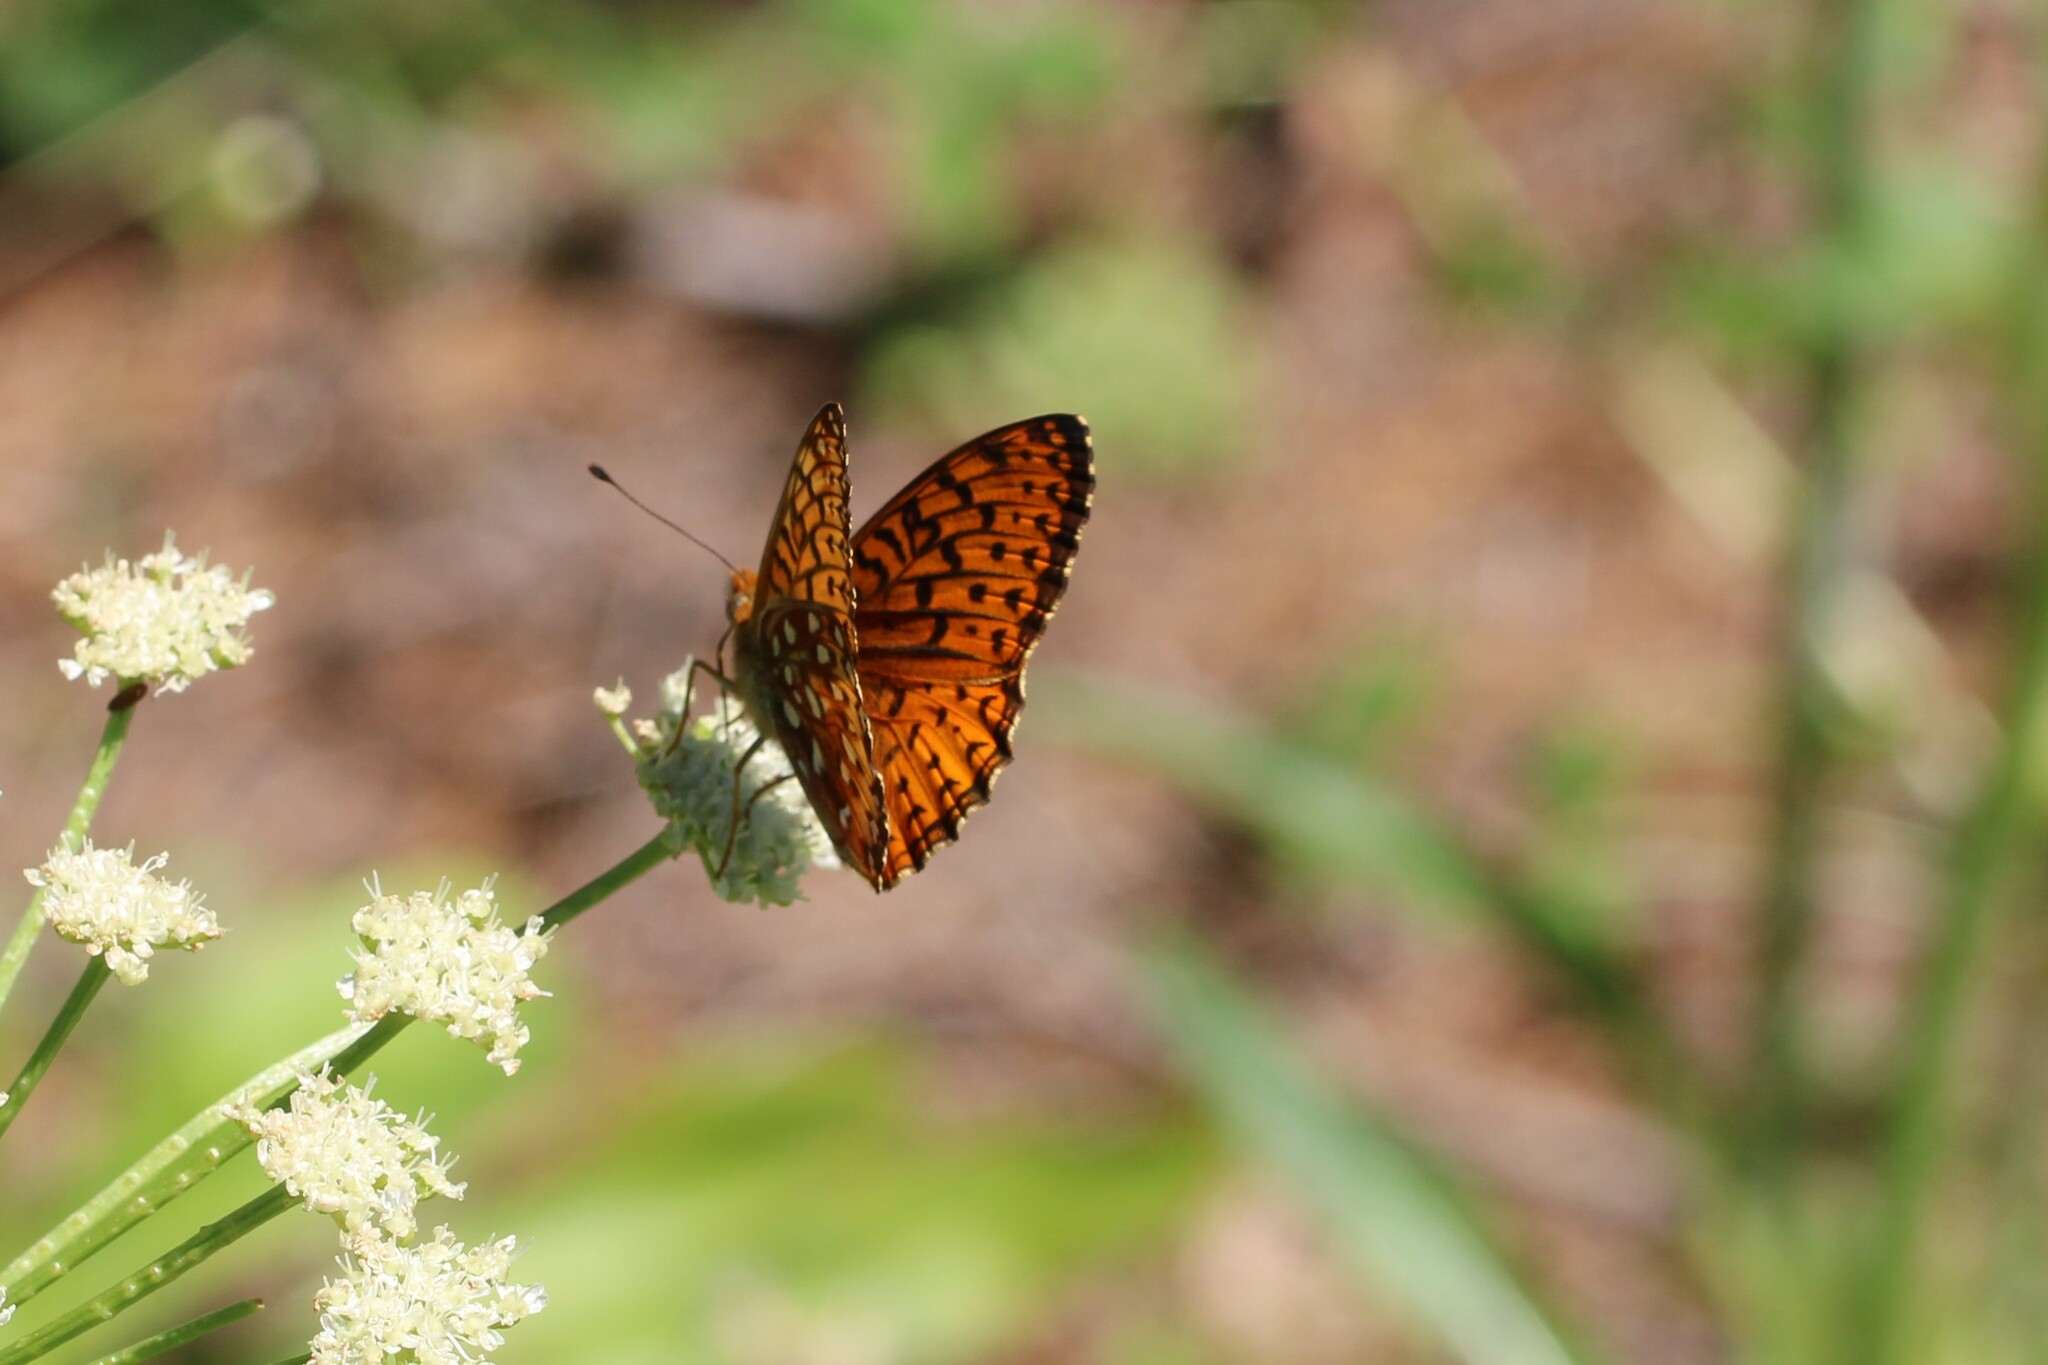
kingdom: Animalia
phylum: Arthropoda
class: Insecta
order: Lepidoptera
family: Nymphalidae
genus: Speyeria
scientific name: Speyeria atlantis
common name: Atlantis fritillary
